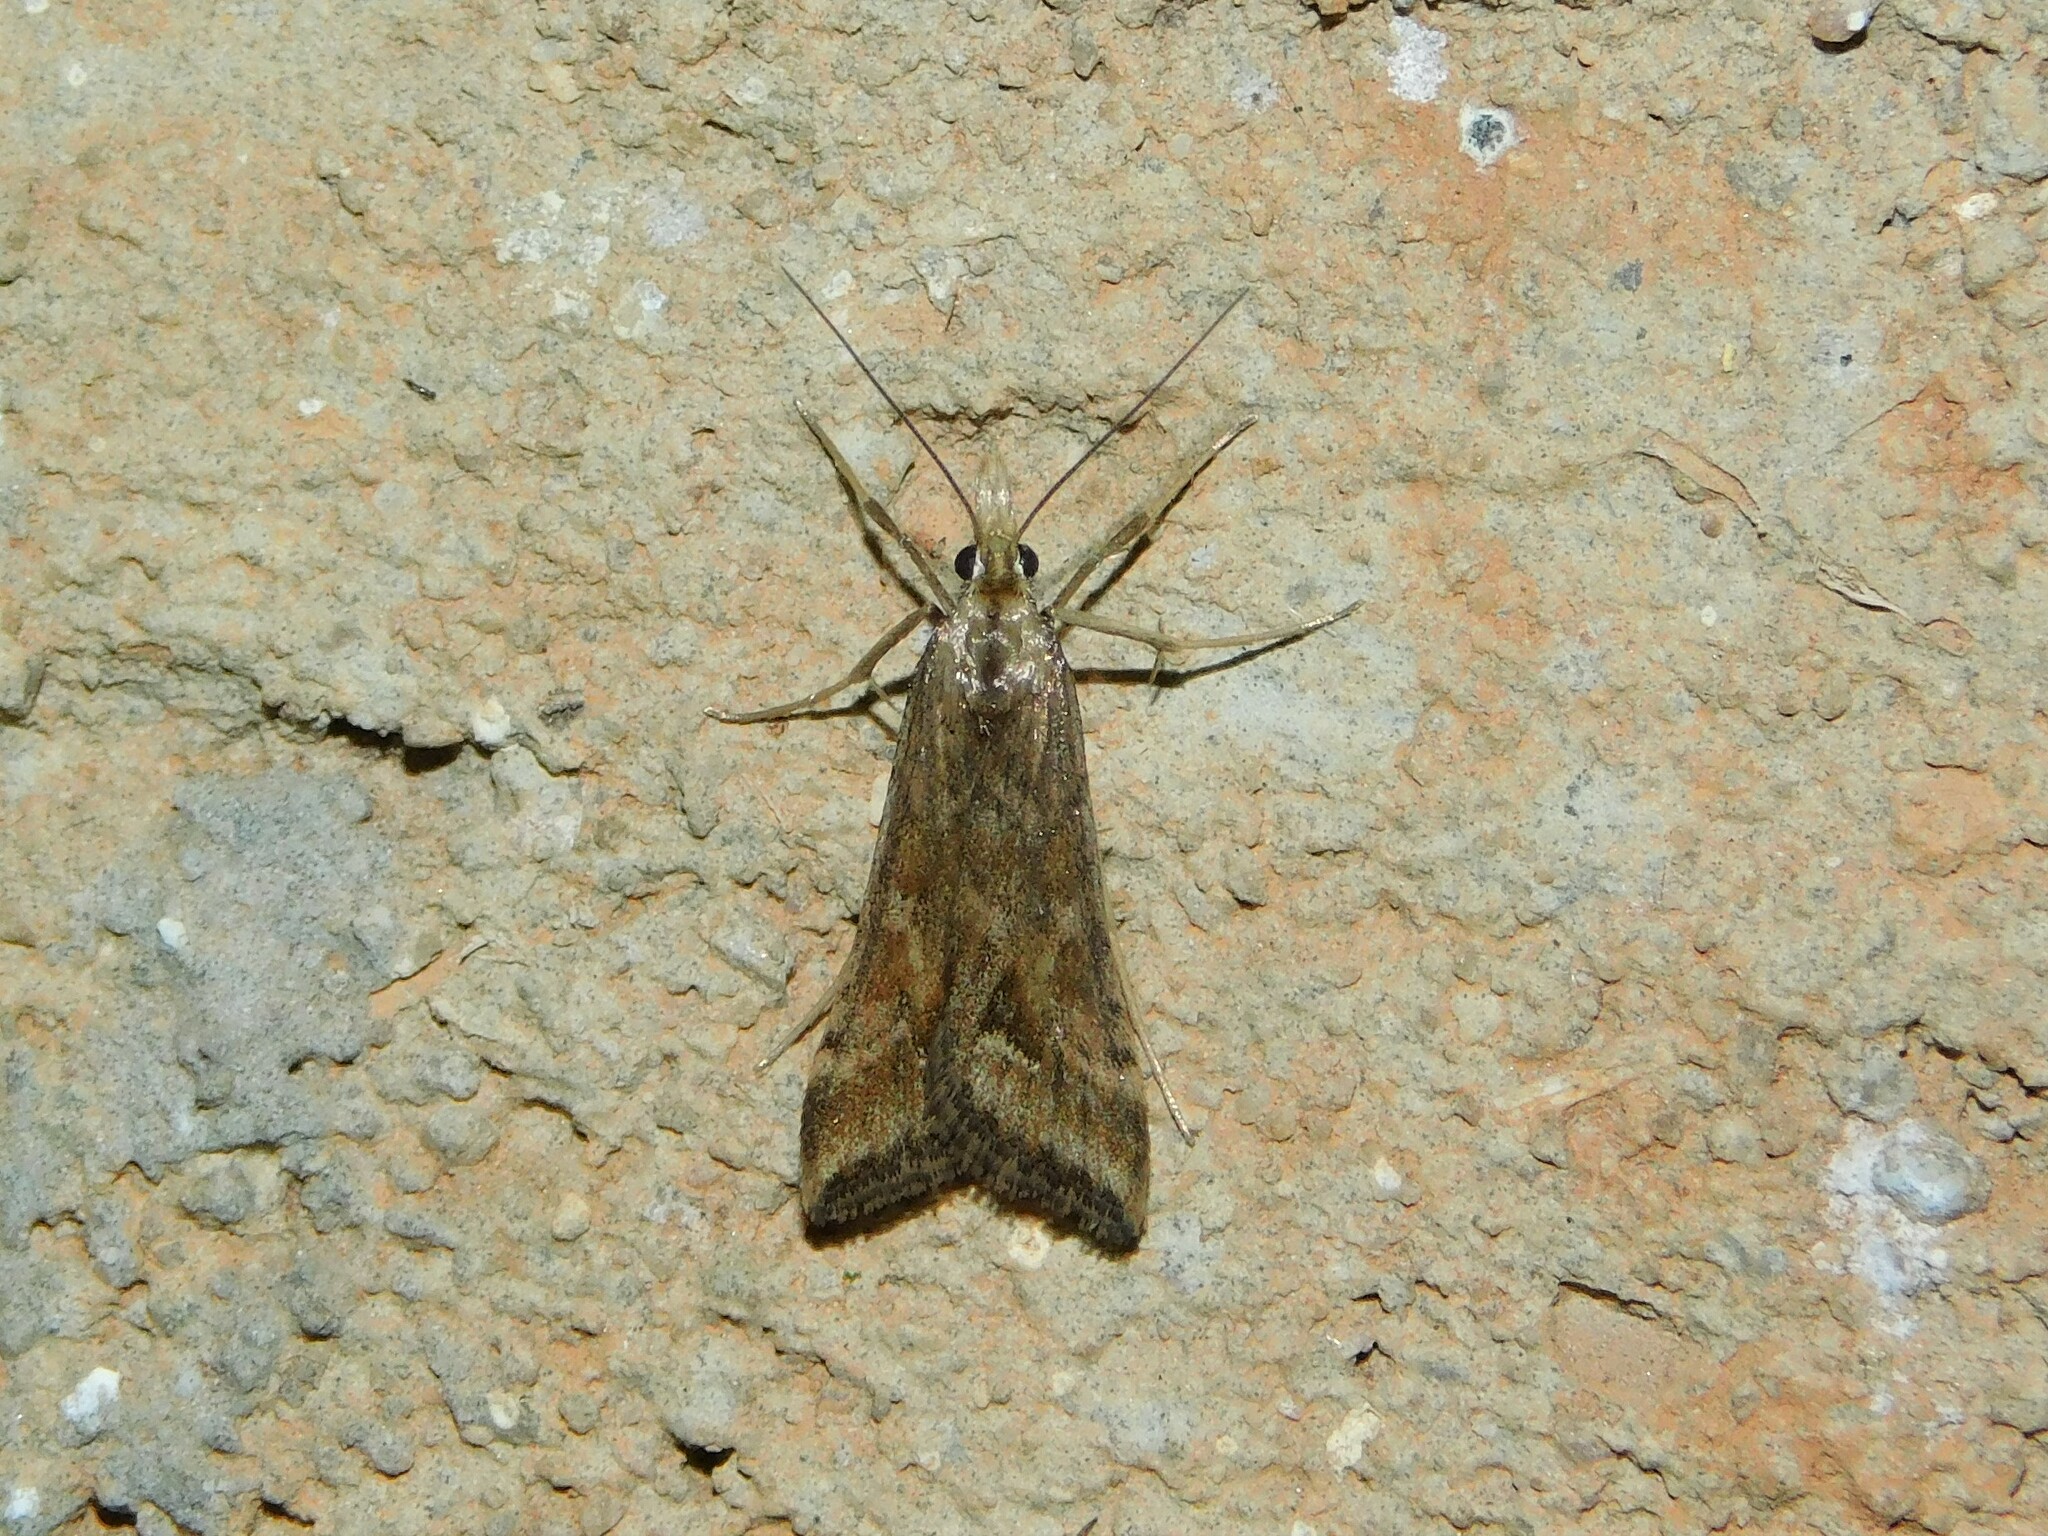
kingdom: Animalia
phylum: Arthropoda
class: Insecta
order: Lepidoptera
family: Crambidae
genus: Diasemia
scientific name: Diasemia monostigma
